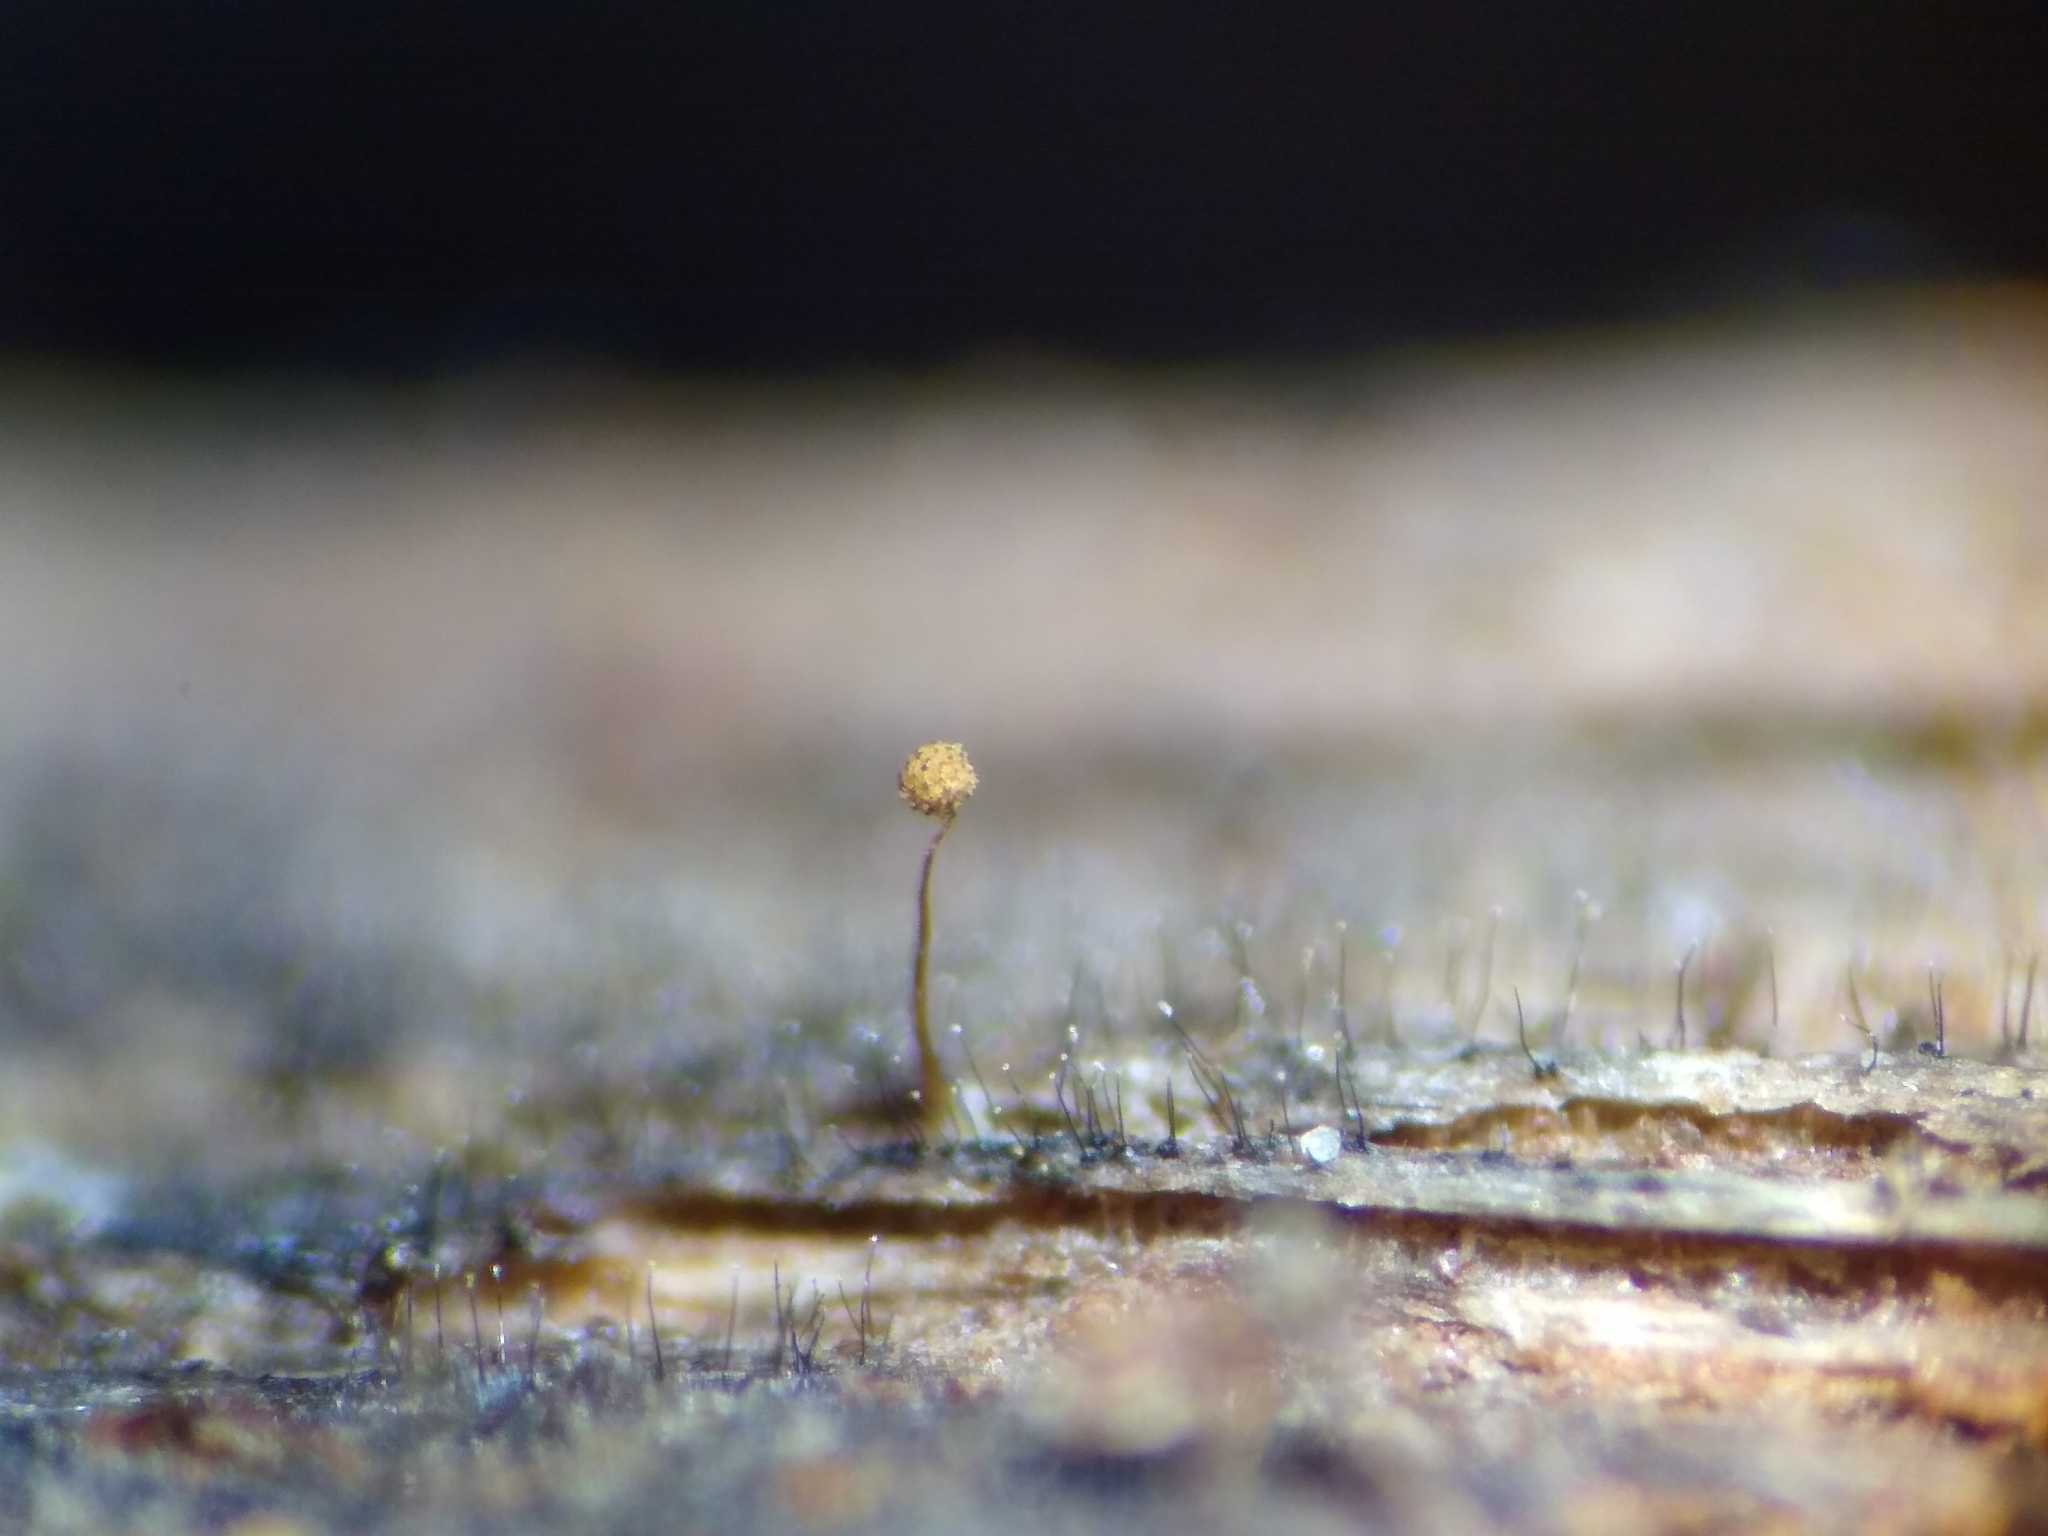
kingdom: Protozoa
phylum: Mycetozoa
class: Myxomycetes
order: Cribrariales
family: Cribrariaceae
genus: Cribraria
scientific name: Cribraria microcarpa
